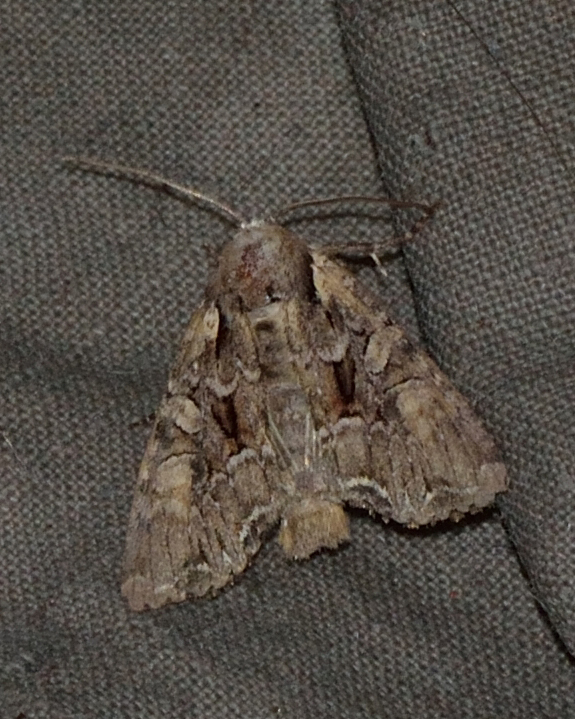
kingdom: Animalia
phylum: Arthropoda
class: Insecta
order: Lepidoptera
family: Noctuidae
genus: Lacanobia
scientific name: Lacanobia thalassina
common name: Pale-shouldered brocade
